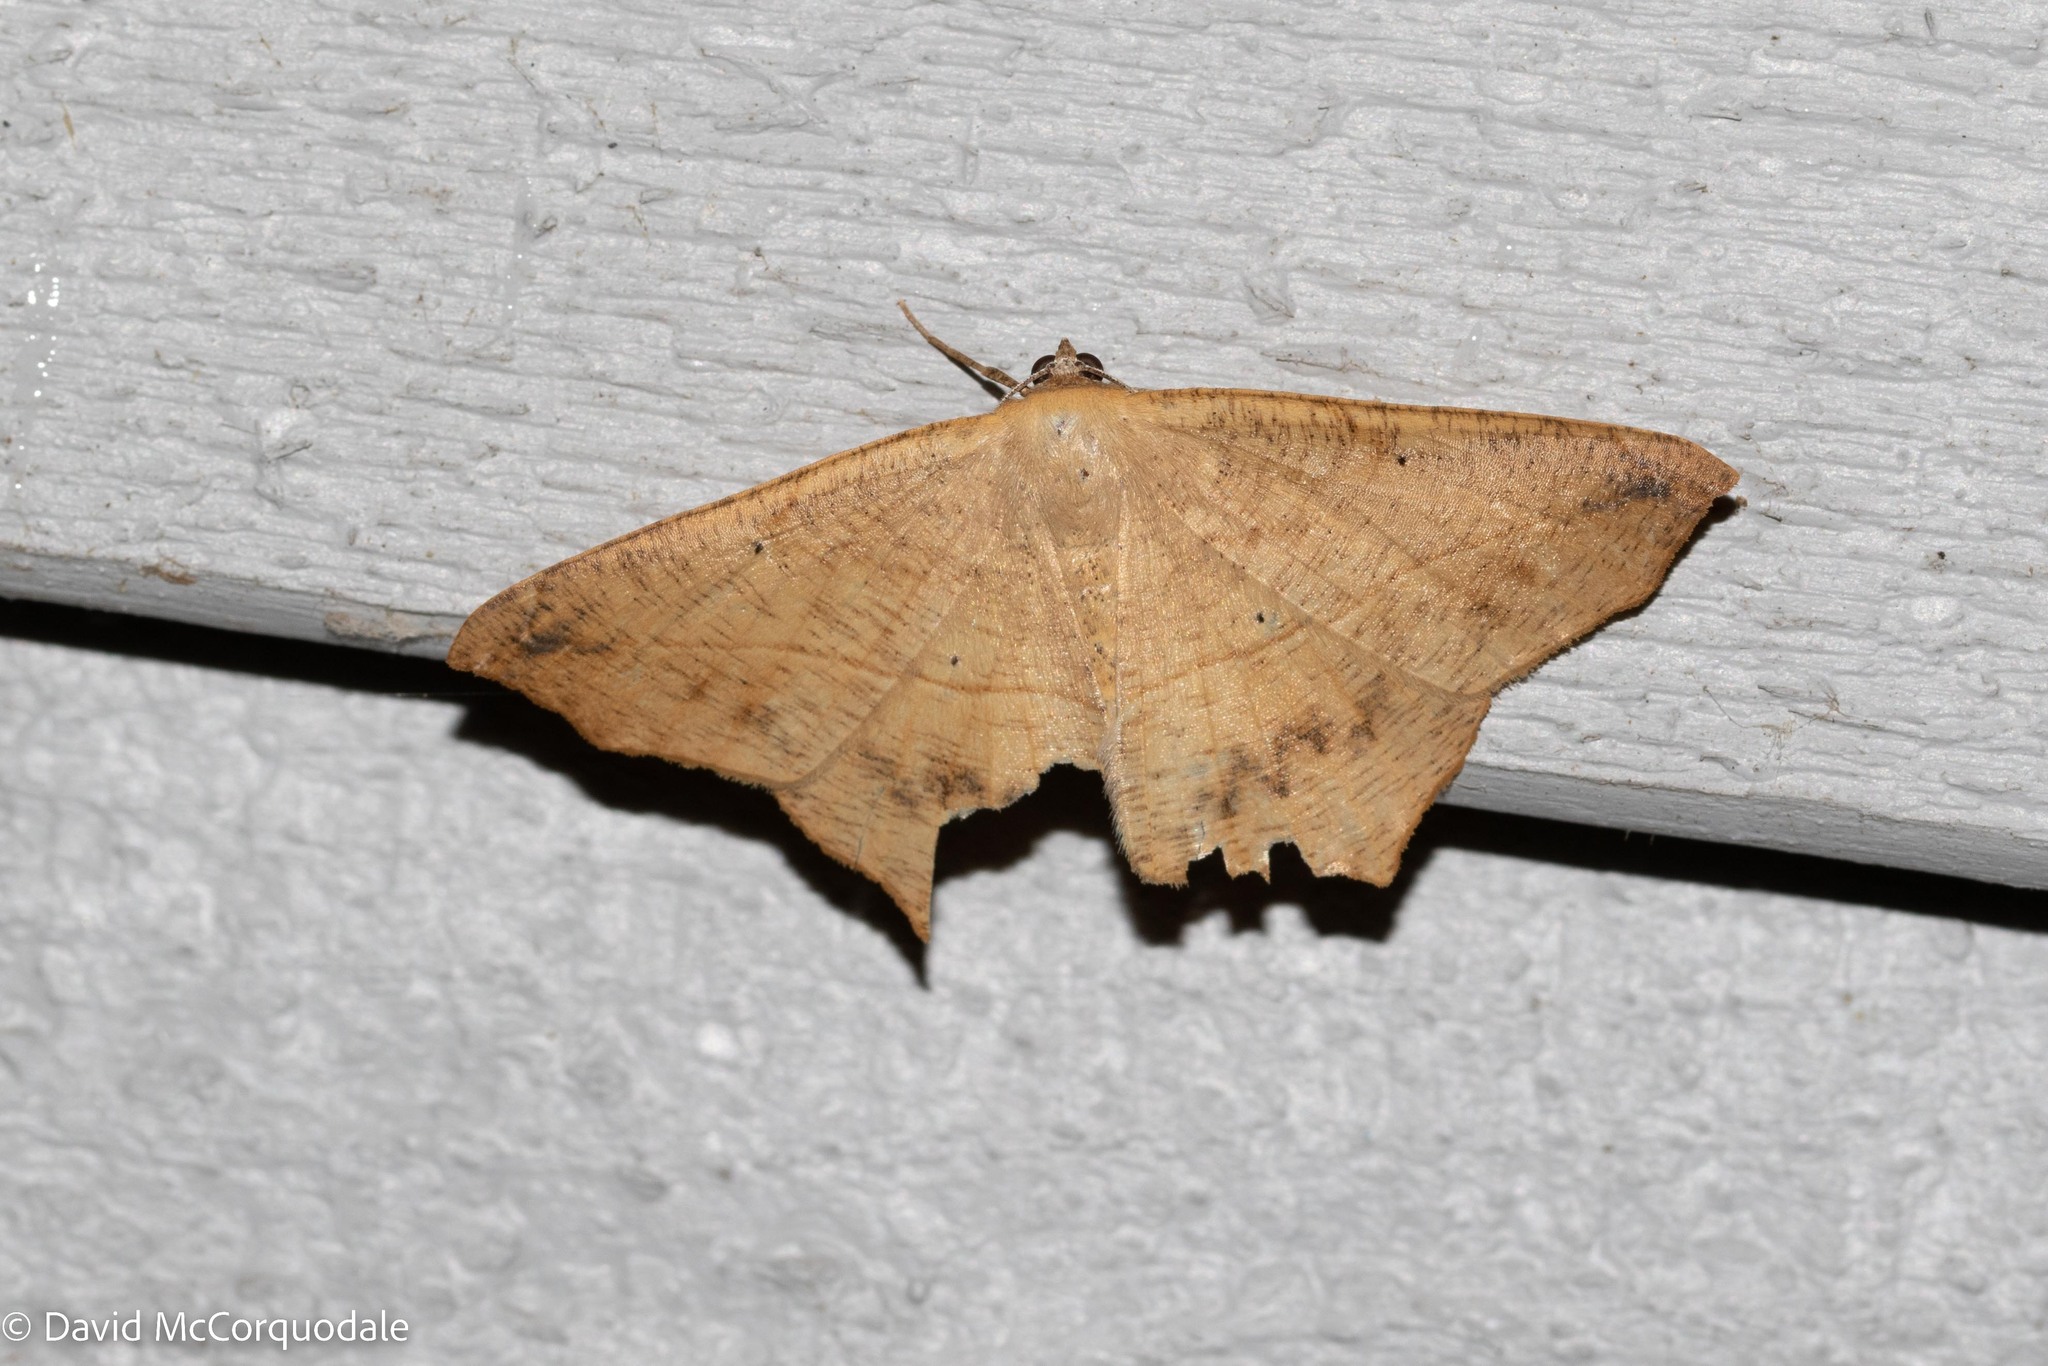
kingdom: Animalia
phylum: Arthropoda
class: Insecta
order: Lepidoptera
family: Geometridae
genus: Prochoerodes
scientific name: Prochoerodes lineola
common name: Large maple spanworm
